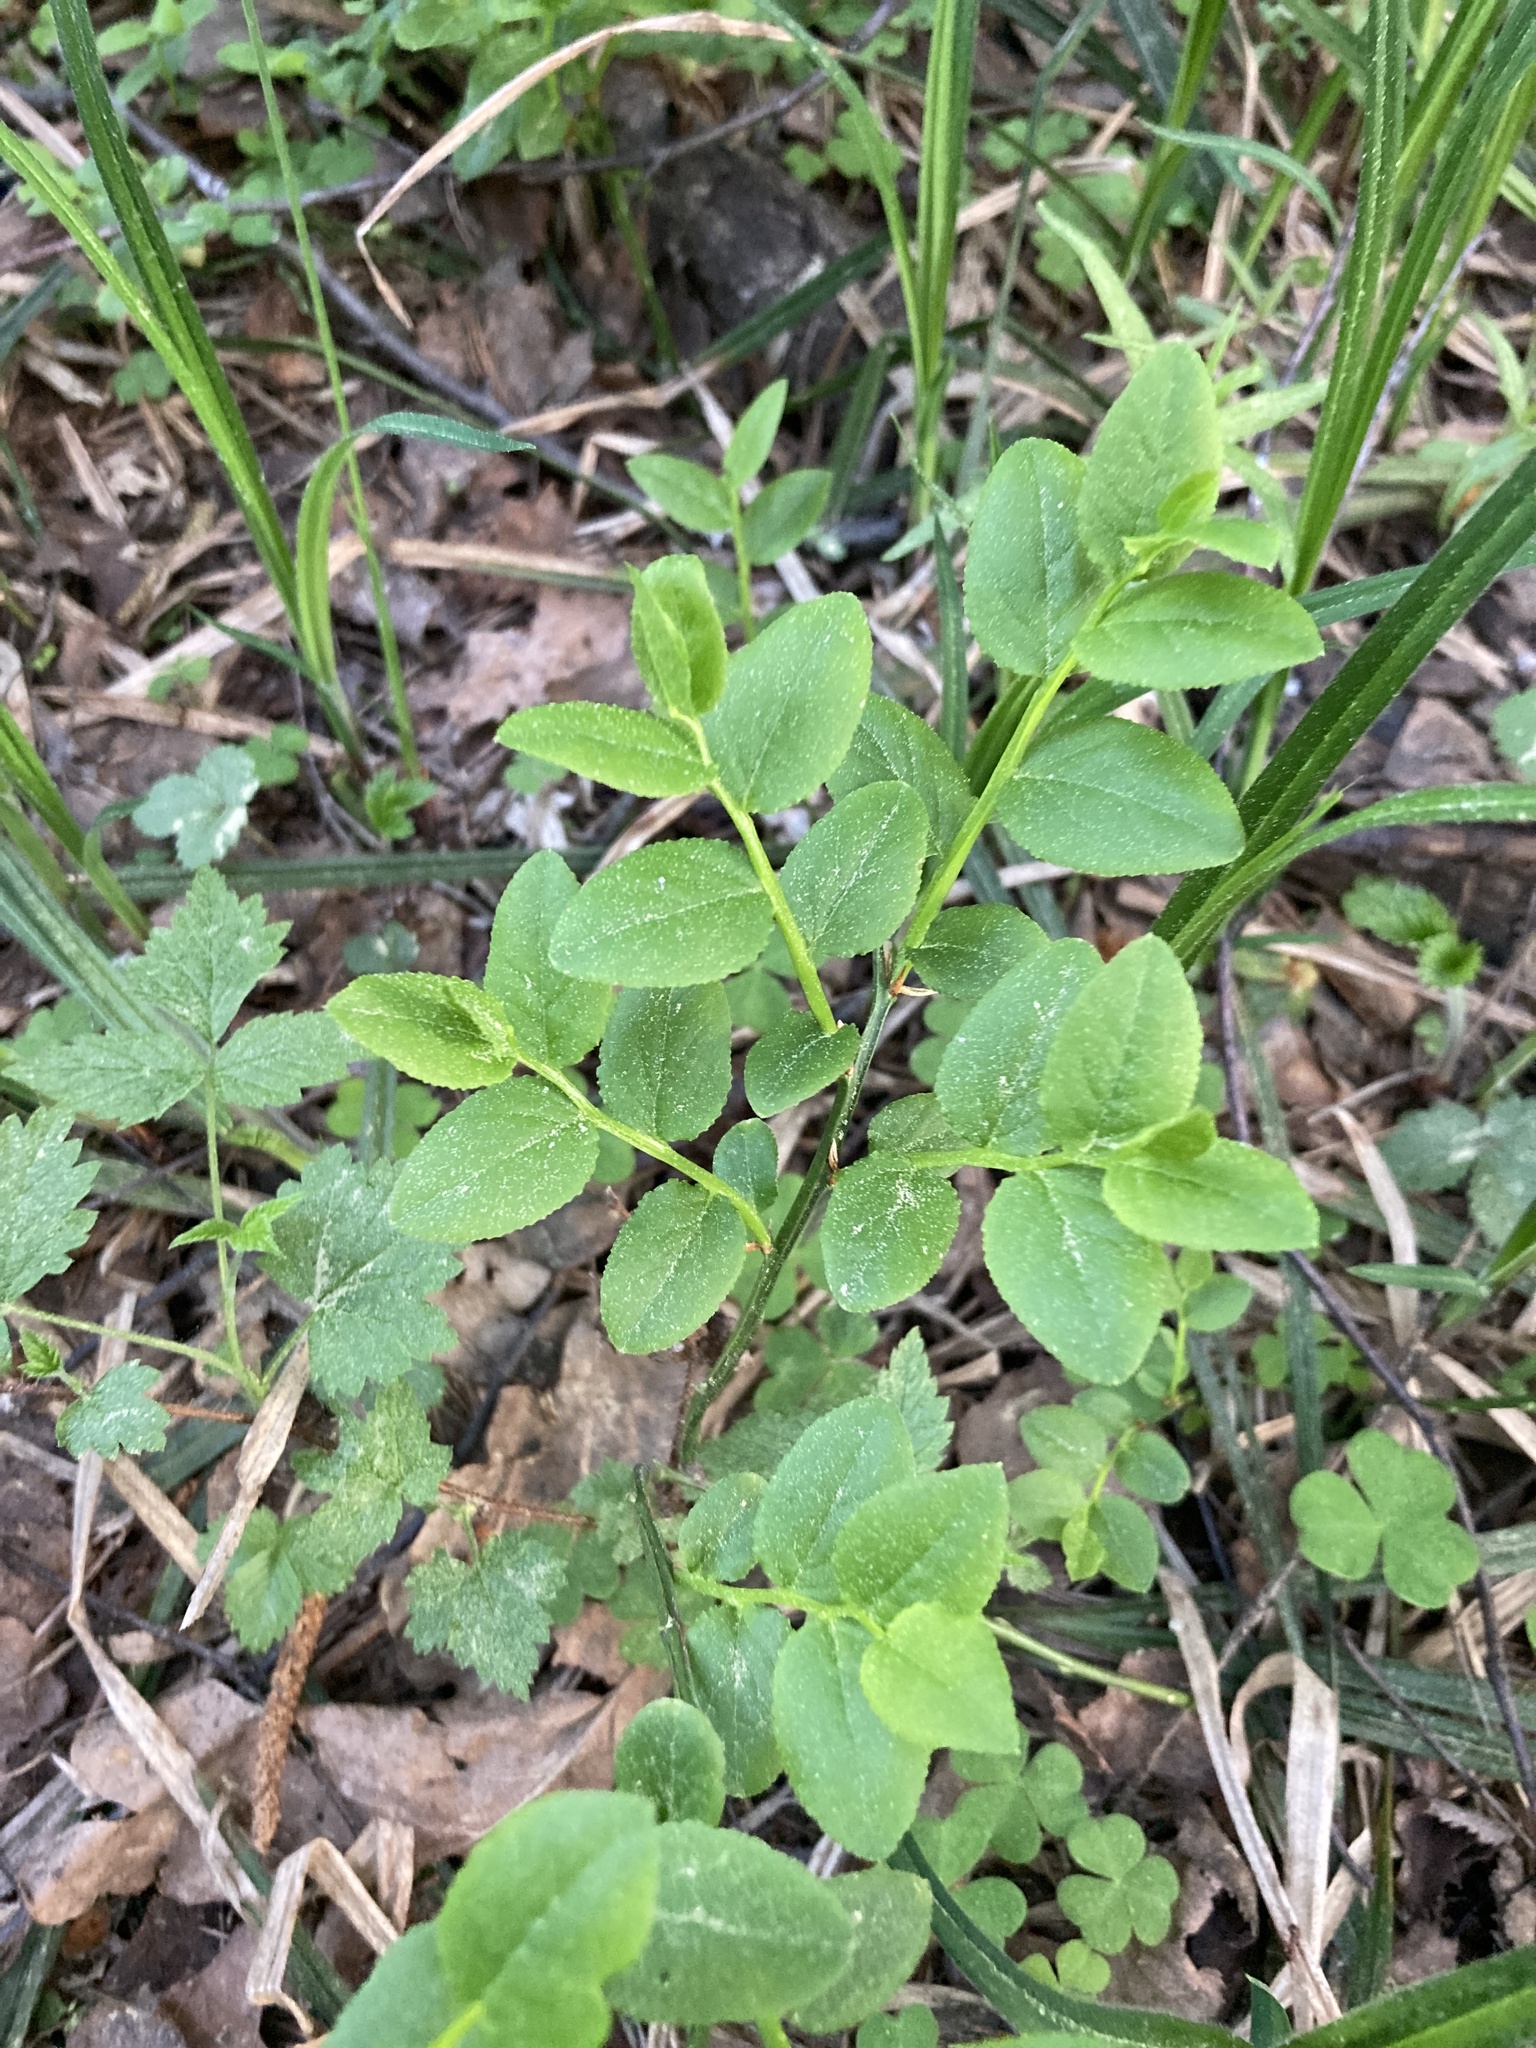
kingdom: Plantae
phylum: Tracheophyta
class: Magnoliopsida
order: Ericales
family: Ericaceae
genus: Vaccinium
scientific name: Vaccinium myrtillus
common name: Bilberry
